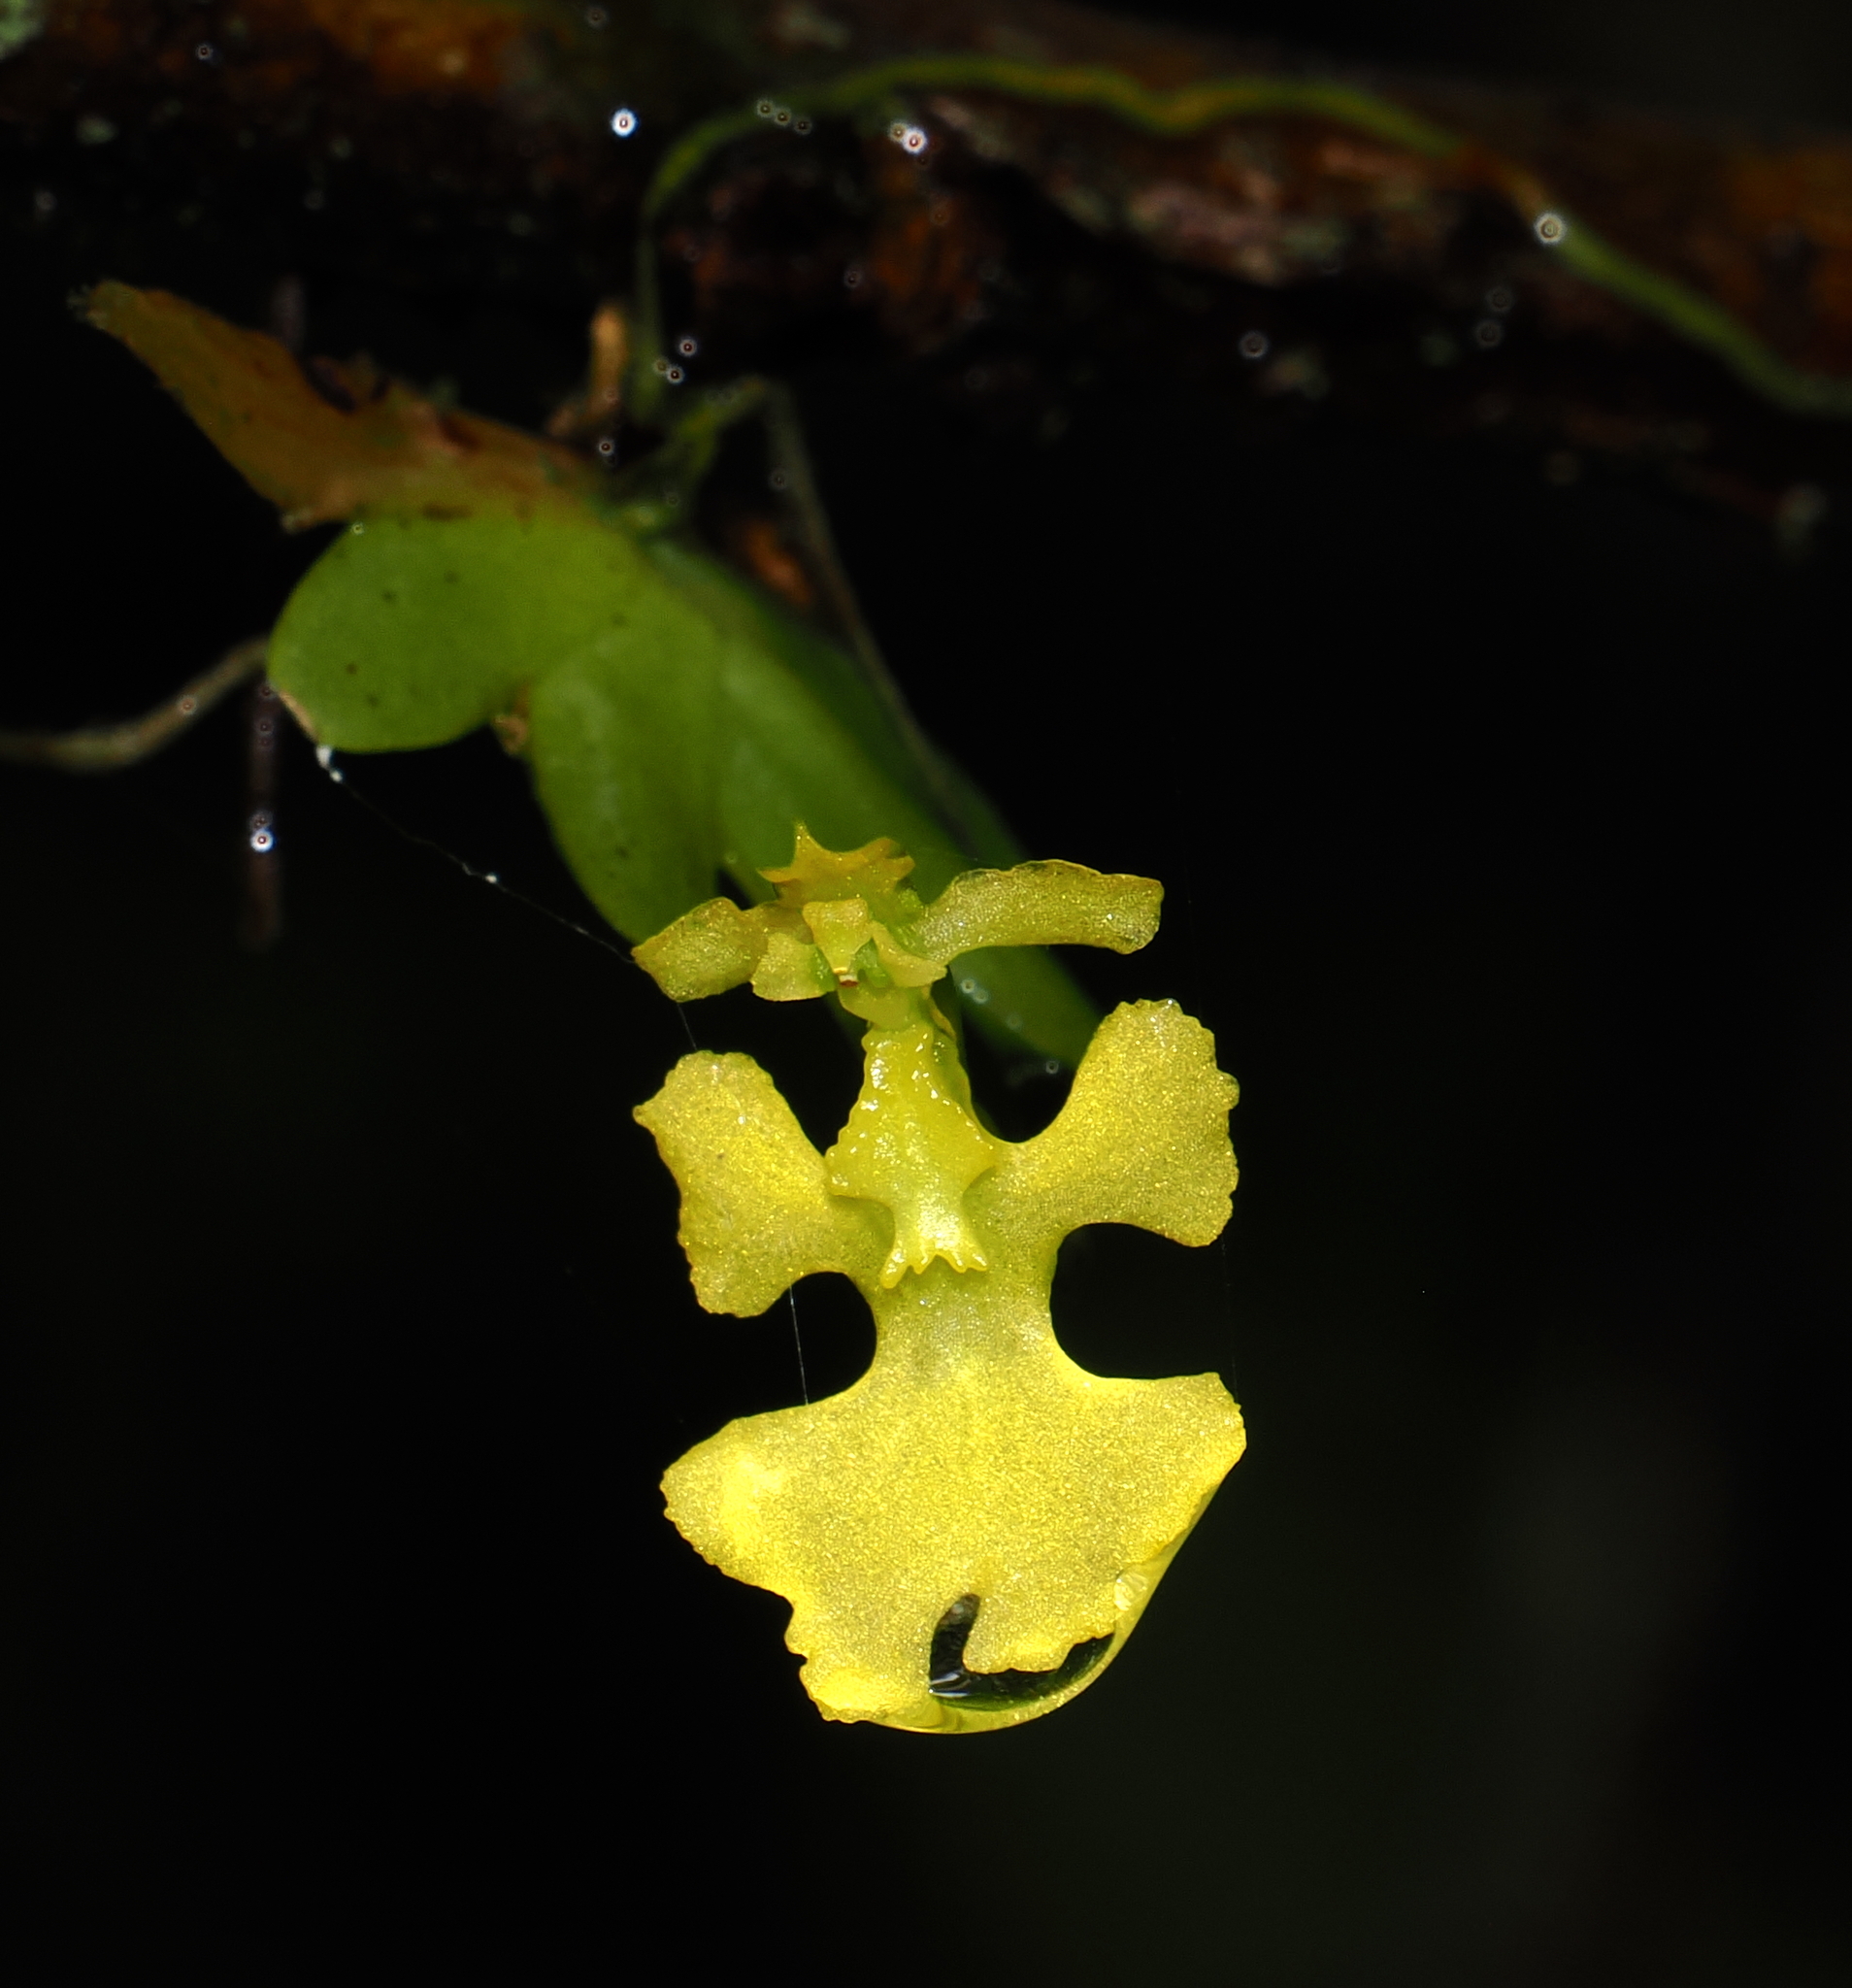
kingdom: Plantae
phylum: Tracheophyta
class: Liliopsida
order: Asparagales
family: Orchidaceae
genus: Erycina
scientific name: Erycina pumilio
